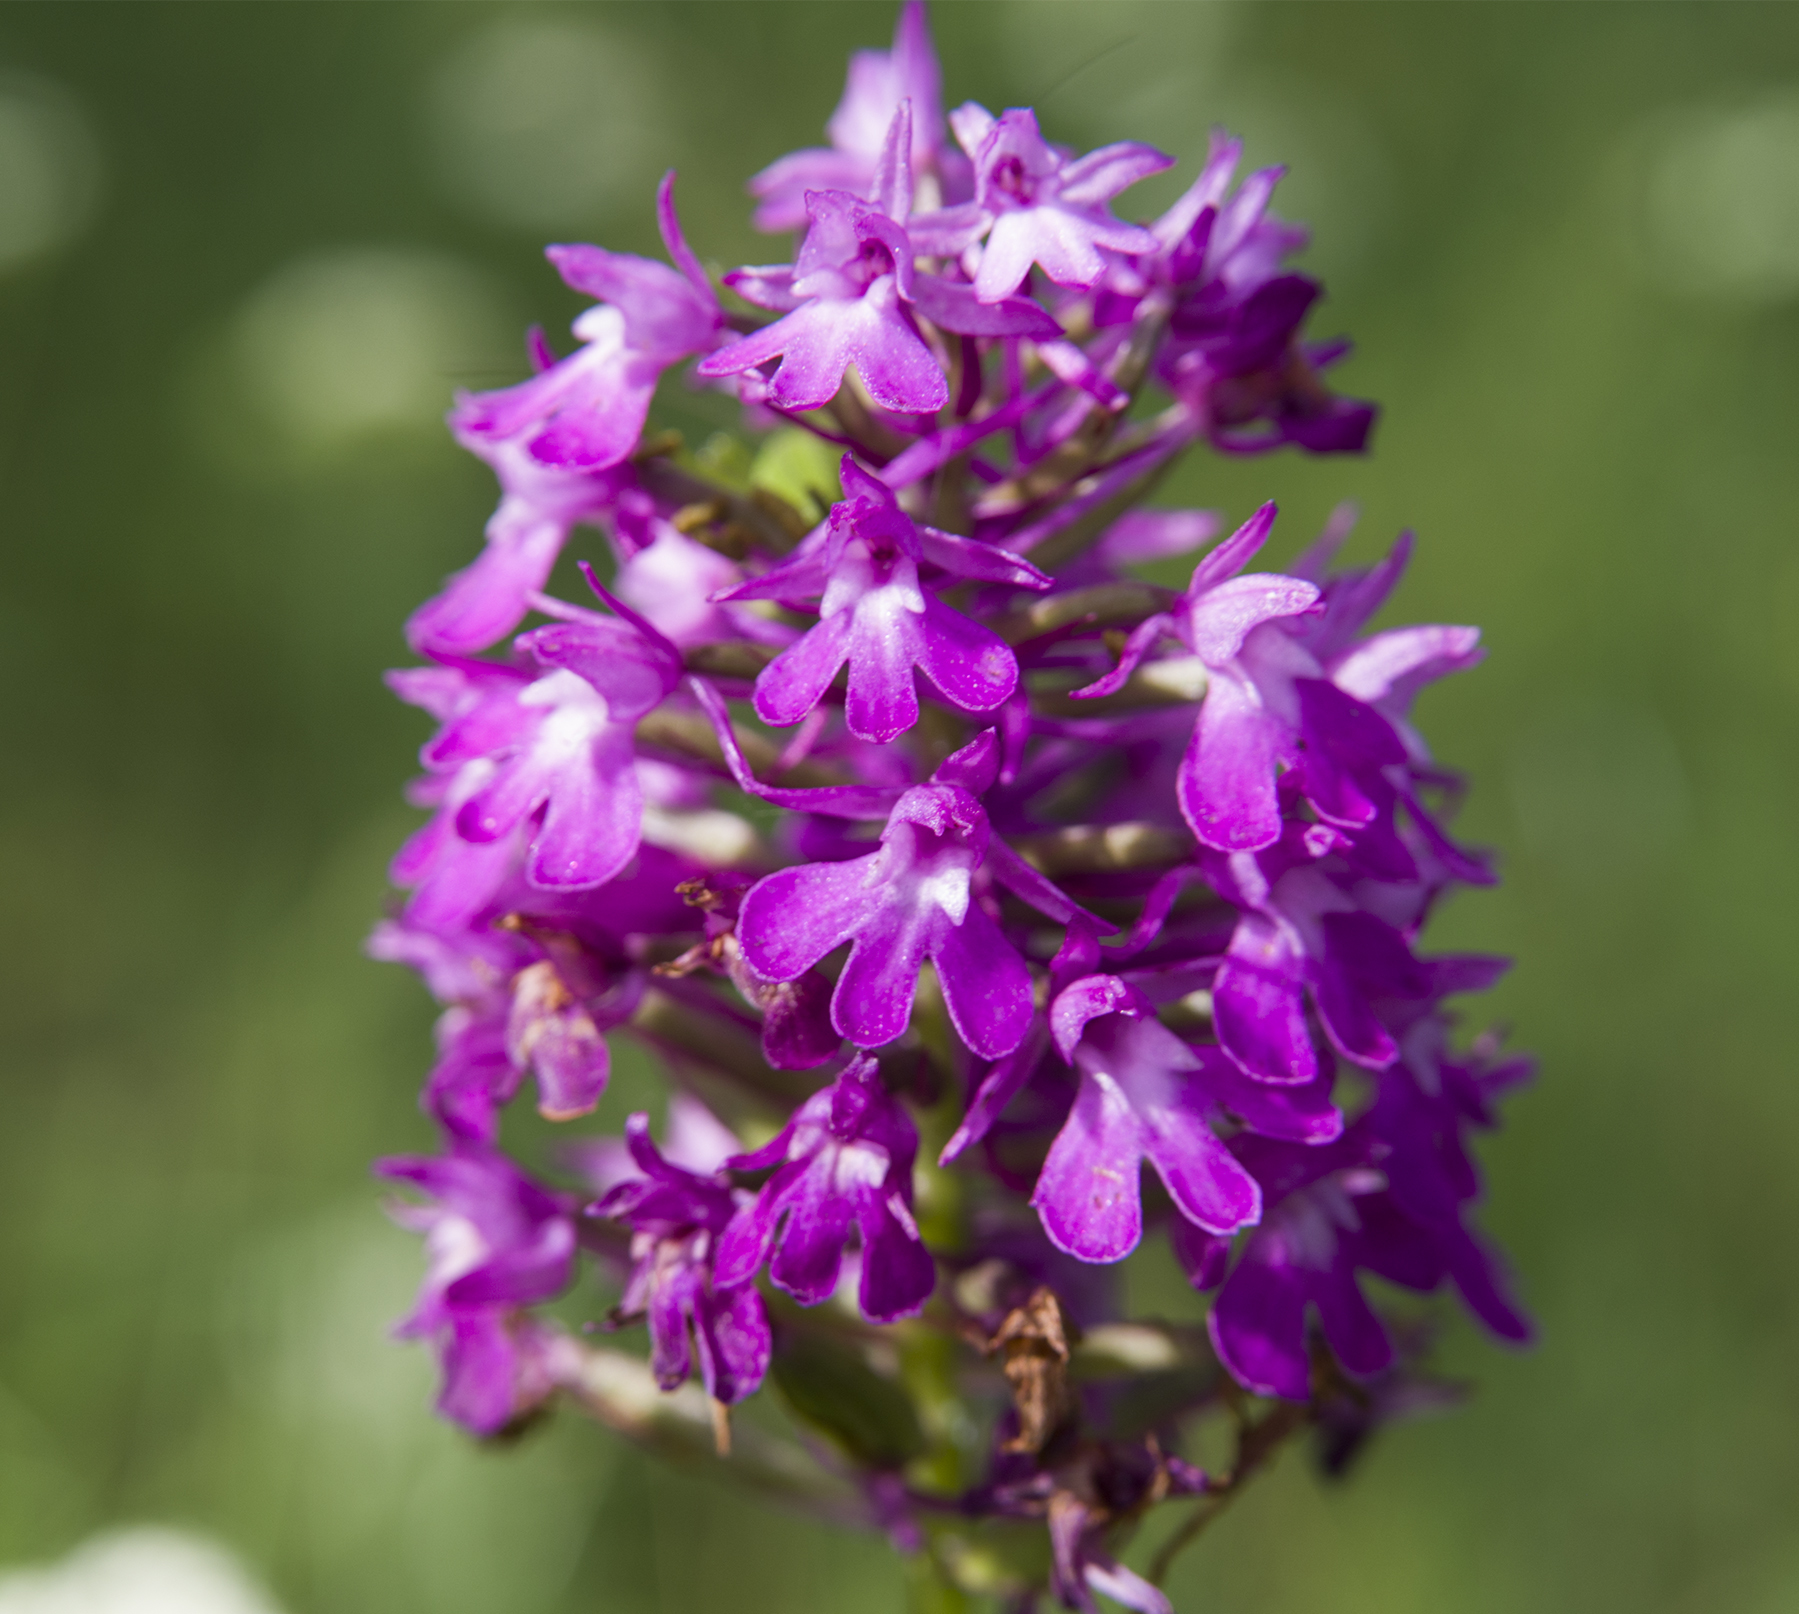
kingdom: Plantae
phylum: Tracheophyta
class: Liliopsida
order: Asparagales
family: Orchidaceae
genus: Anacamptis
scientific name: Anacamptis pyramidalis
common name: Pyramidal orchid
